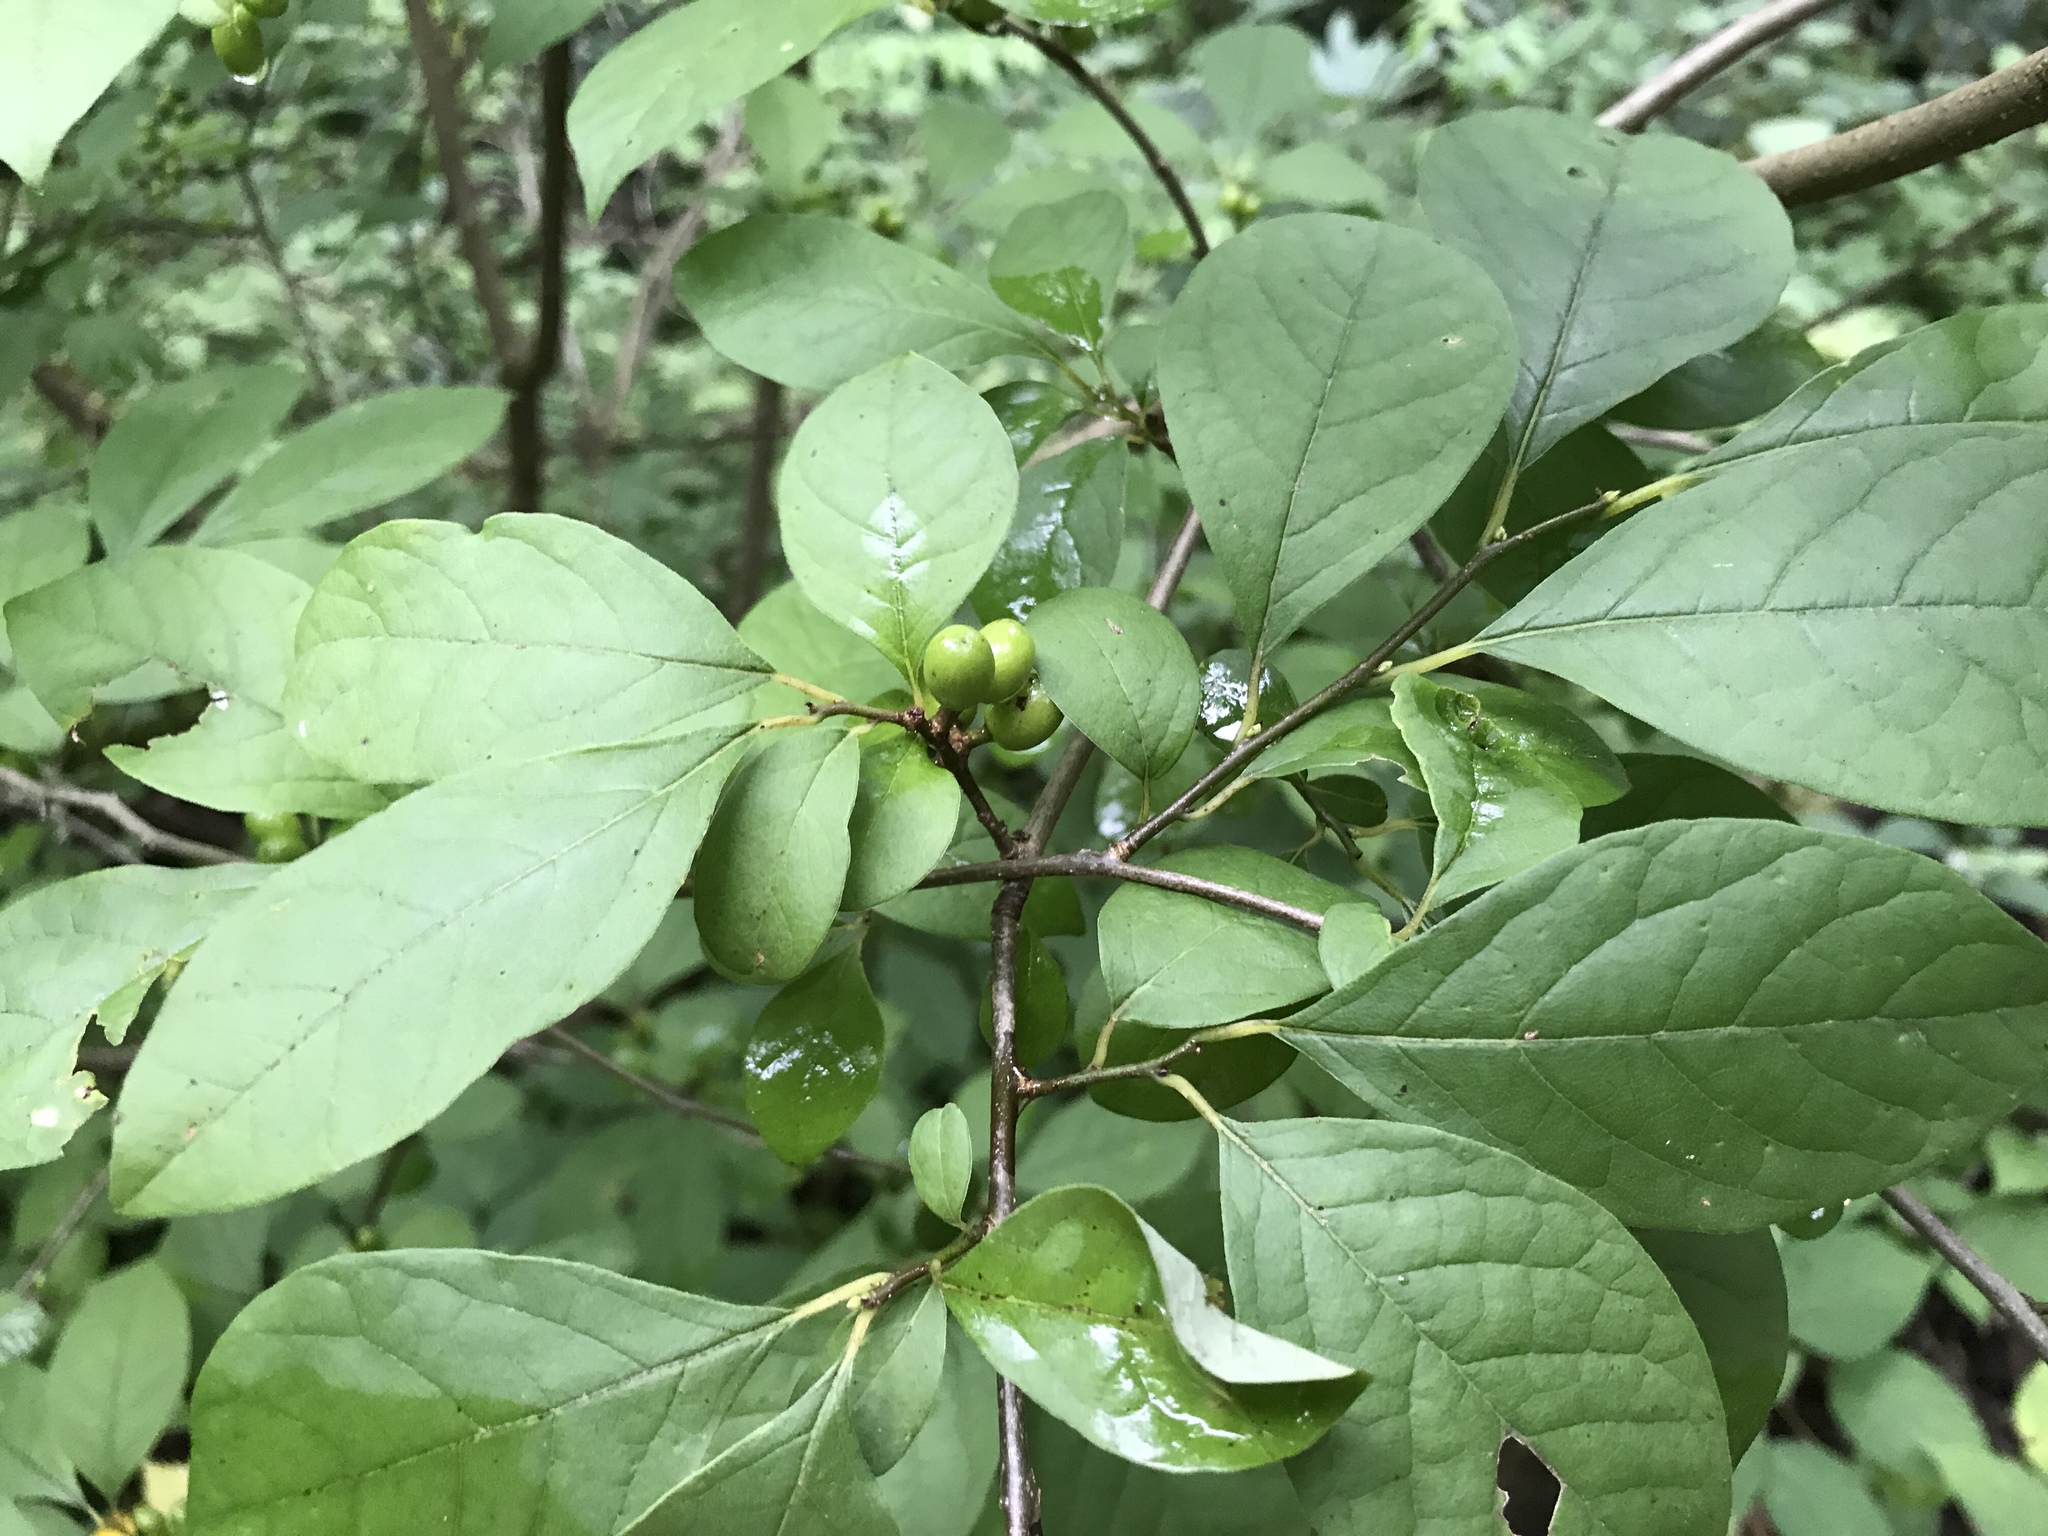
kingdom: Plantae
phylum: Tracheophyta
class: Magnoliopsida
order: Laurales
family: Lauraceae
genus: Lindera
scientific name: Lindera benzoin
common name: Spicebush
